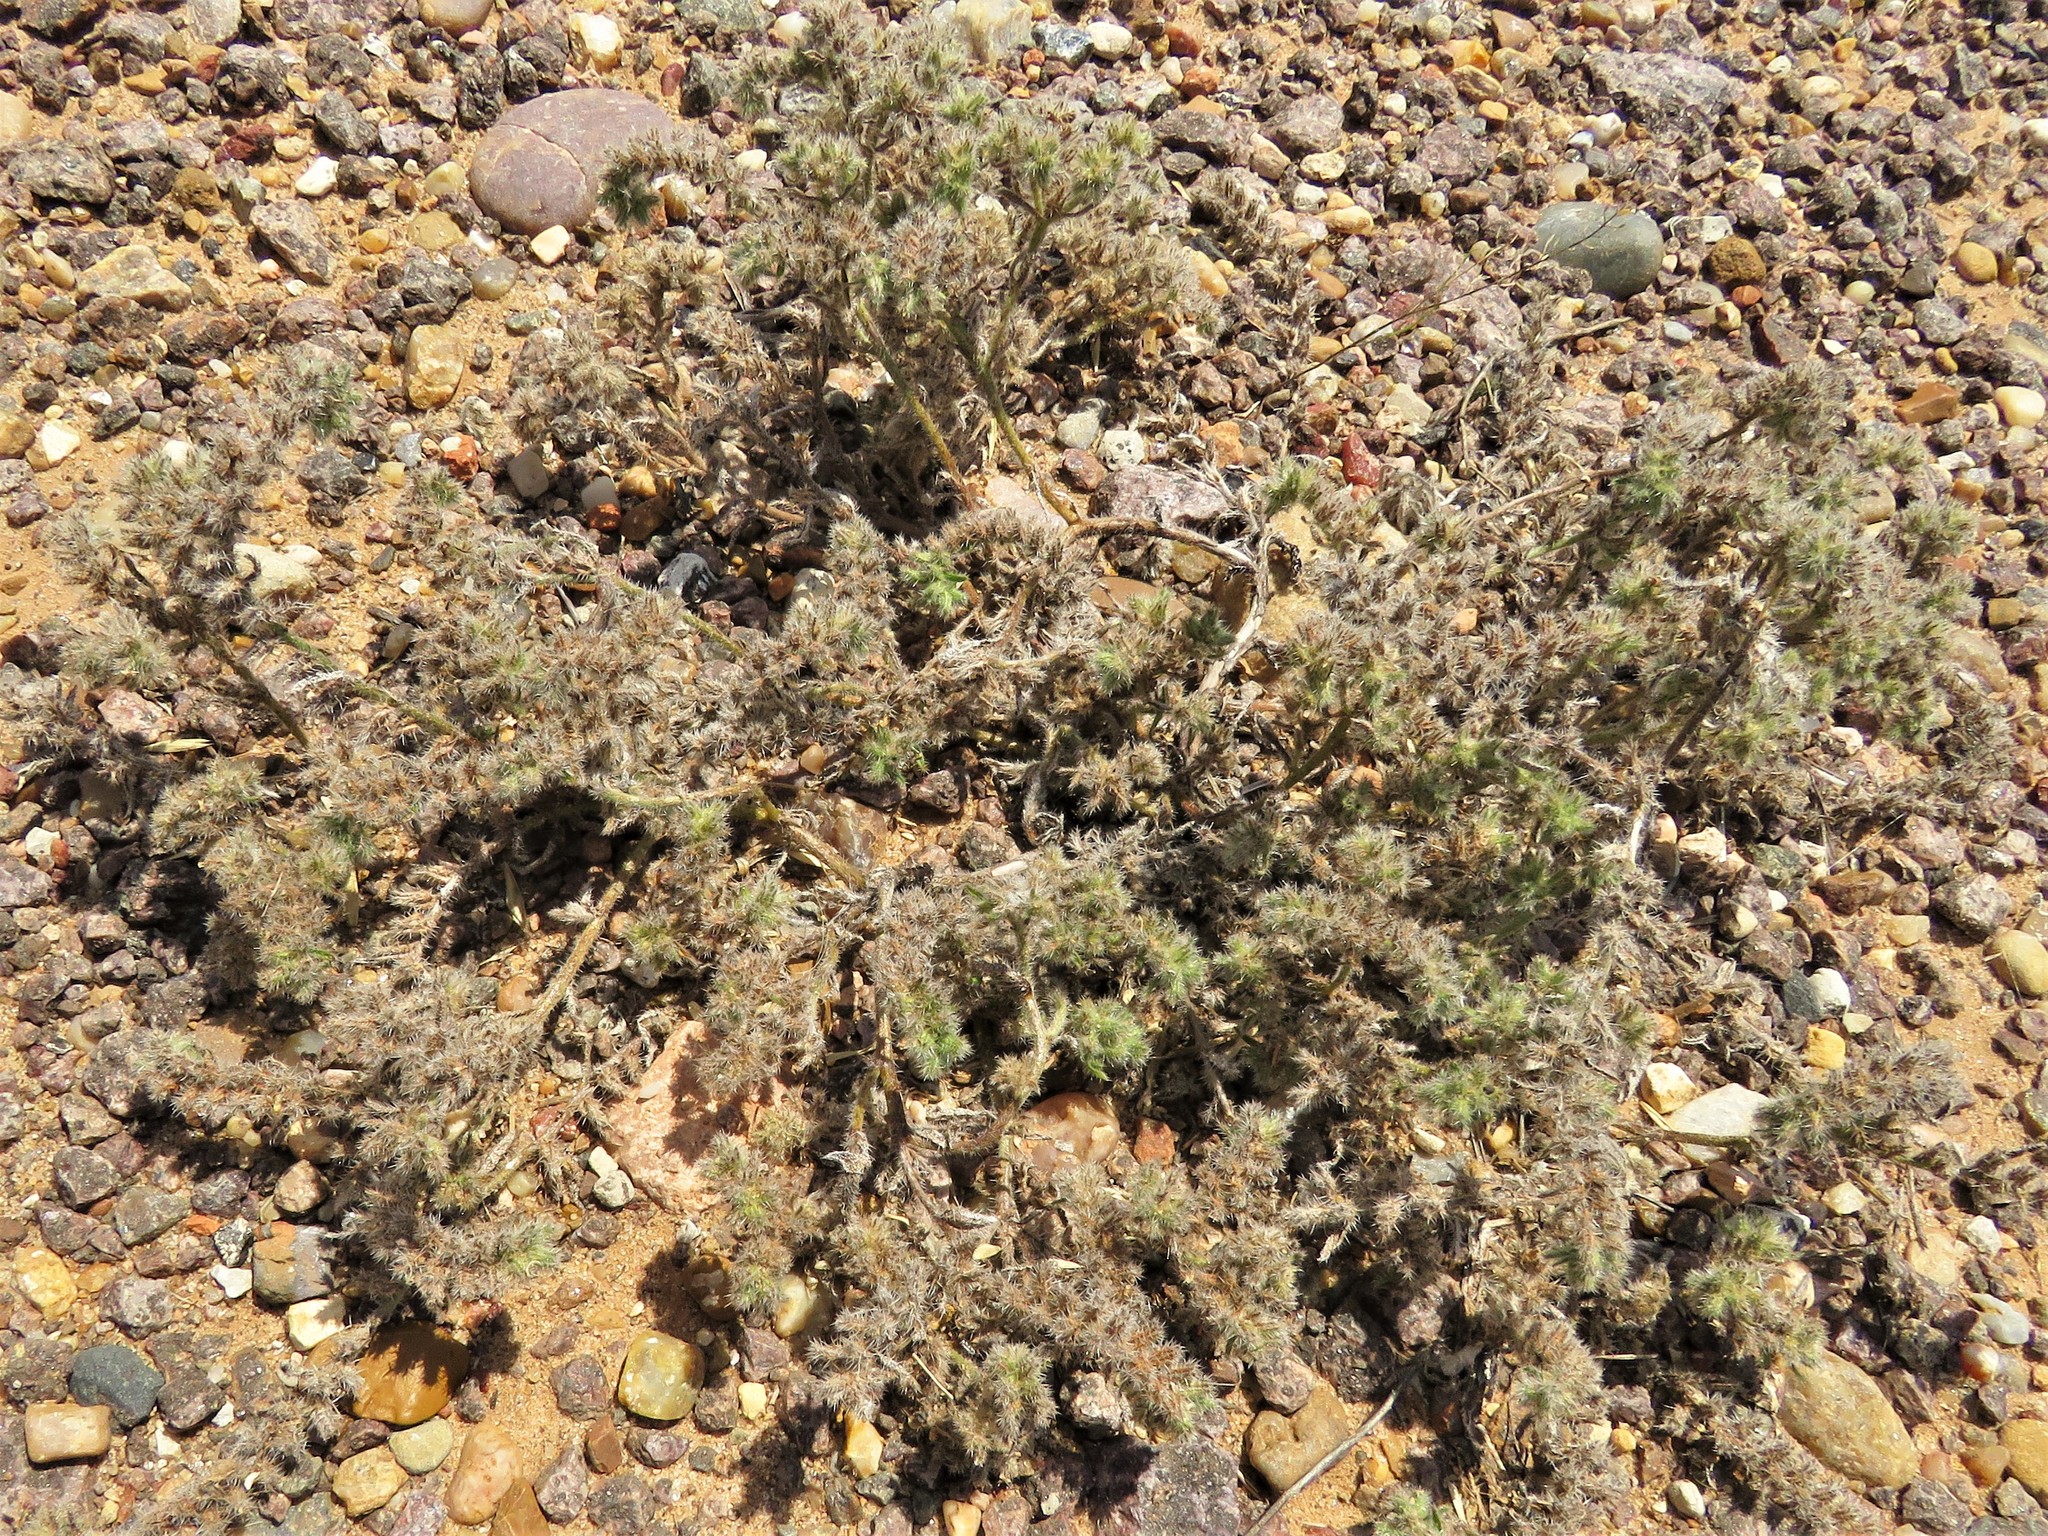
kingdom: Plantae
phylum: Tracheophyta
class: Magnoliopsida
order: Boraginales
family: Boraginaceae
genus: Cryptantha
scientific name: Cryptantha minima
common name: Little cat's-eye
